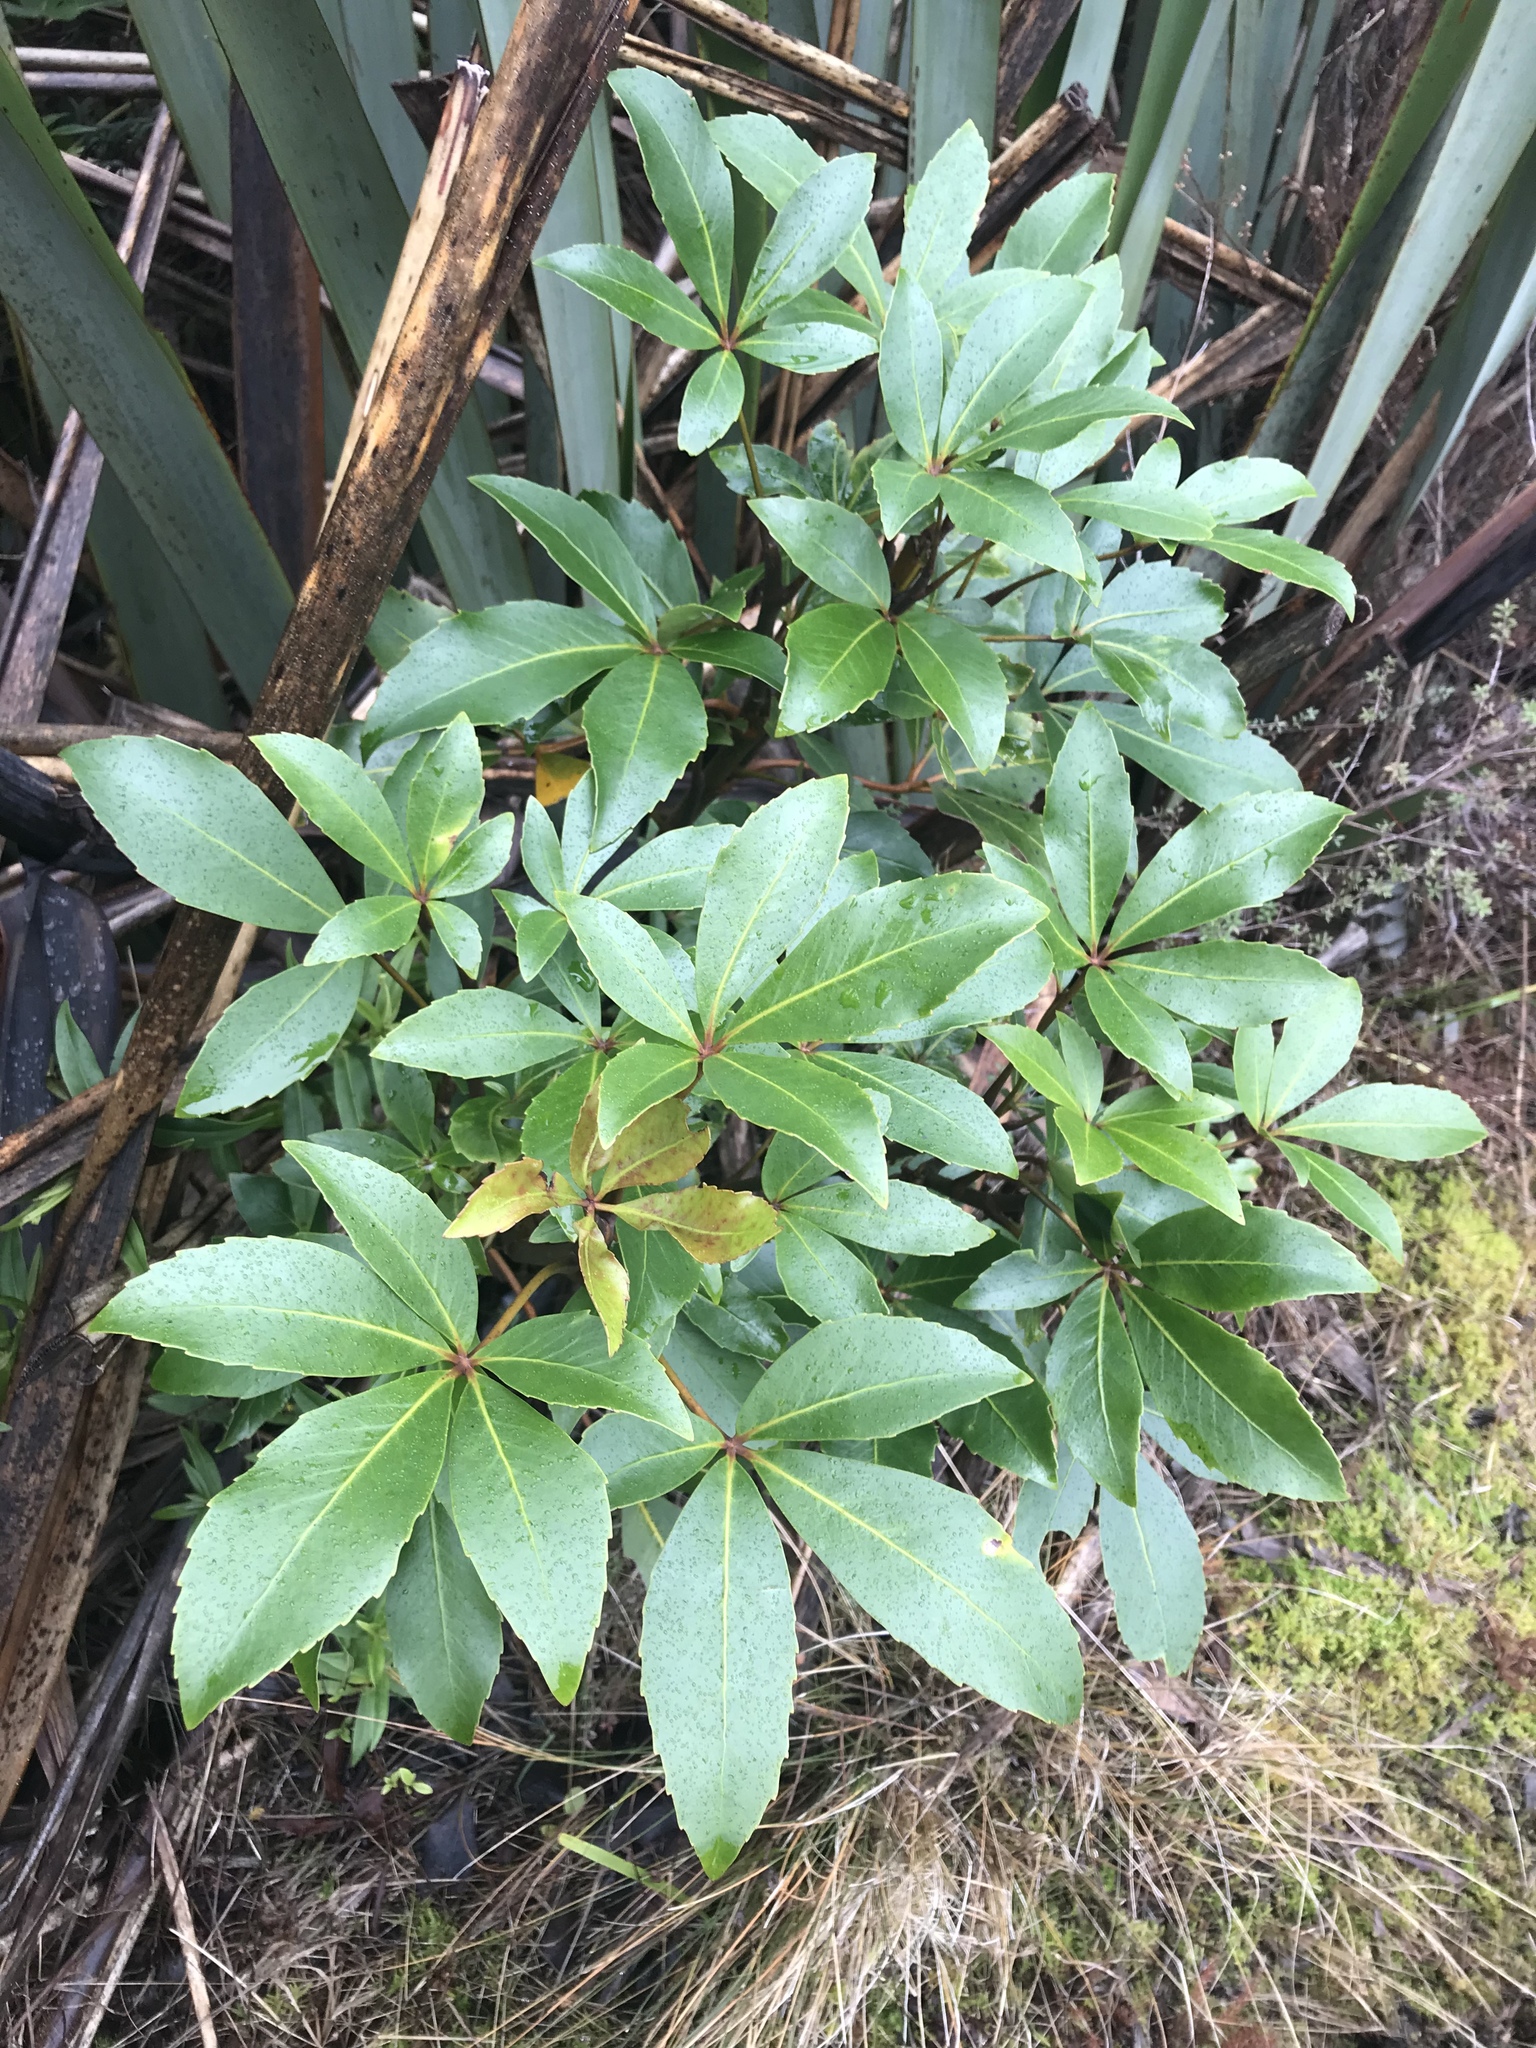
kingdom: Plantae
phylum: Tracheophyta
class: Magnoliopsida
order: Apiales
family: Araliaceae
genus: Neopanax
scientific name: Neopanax colensoi
